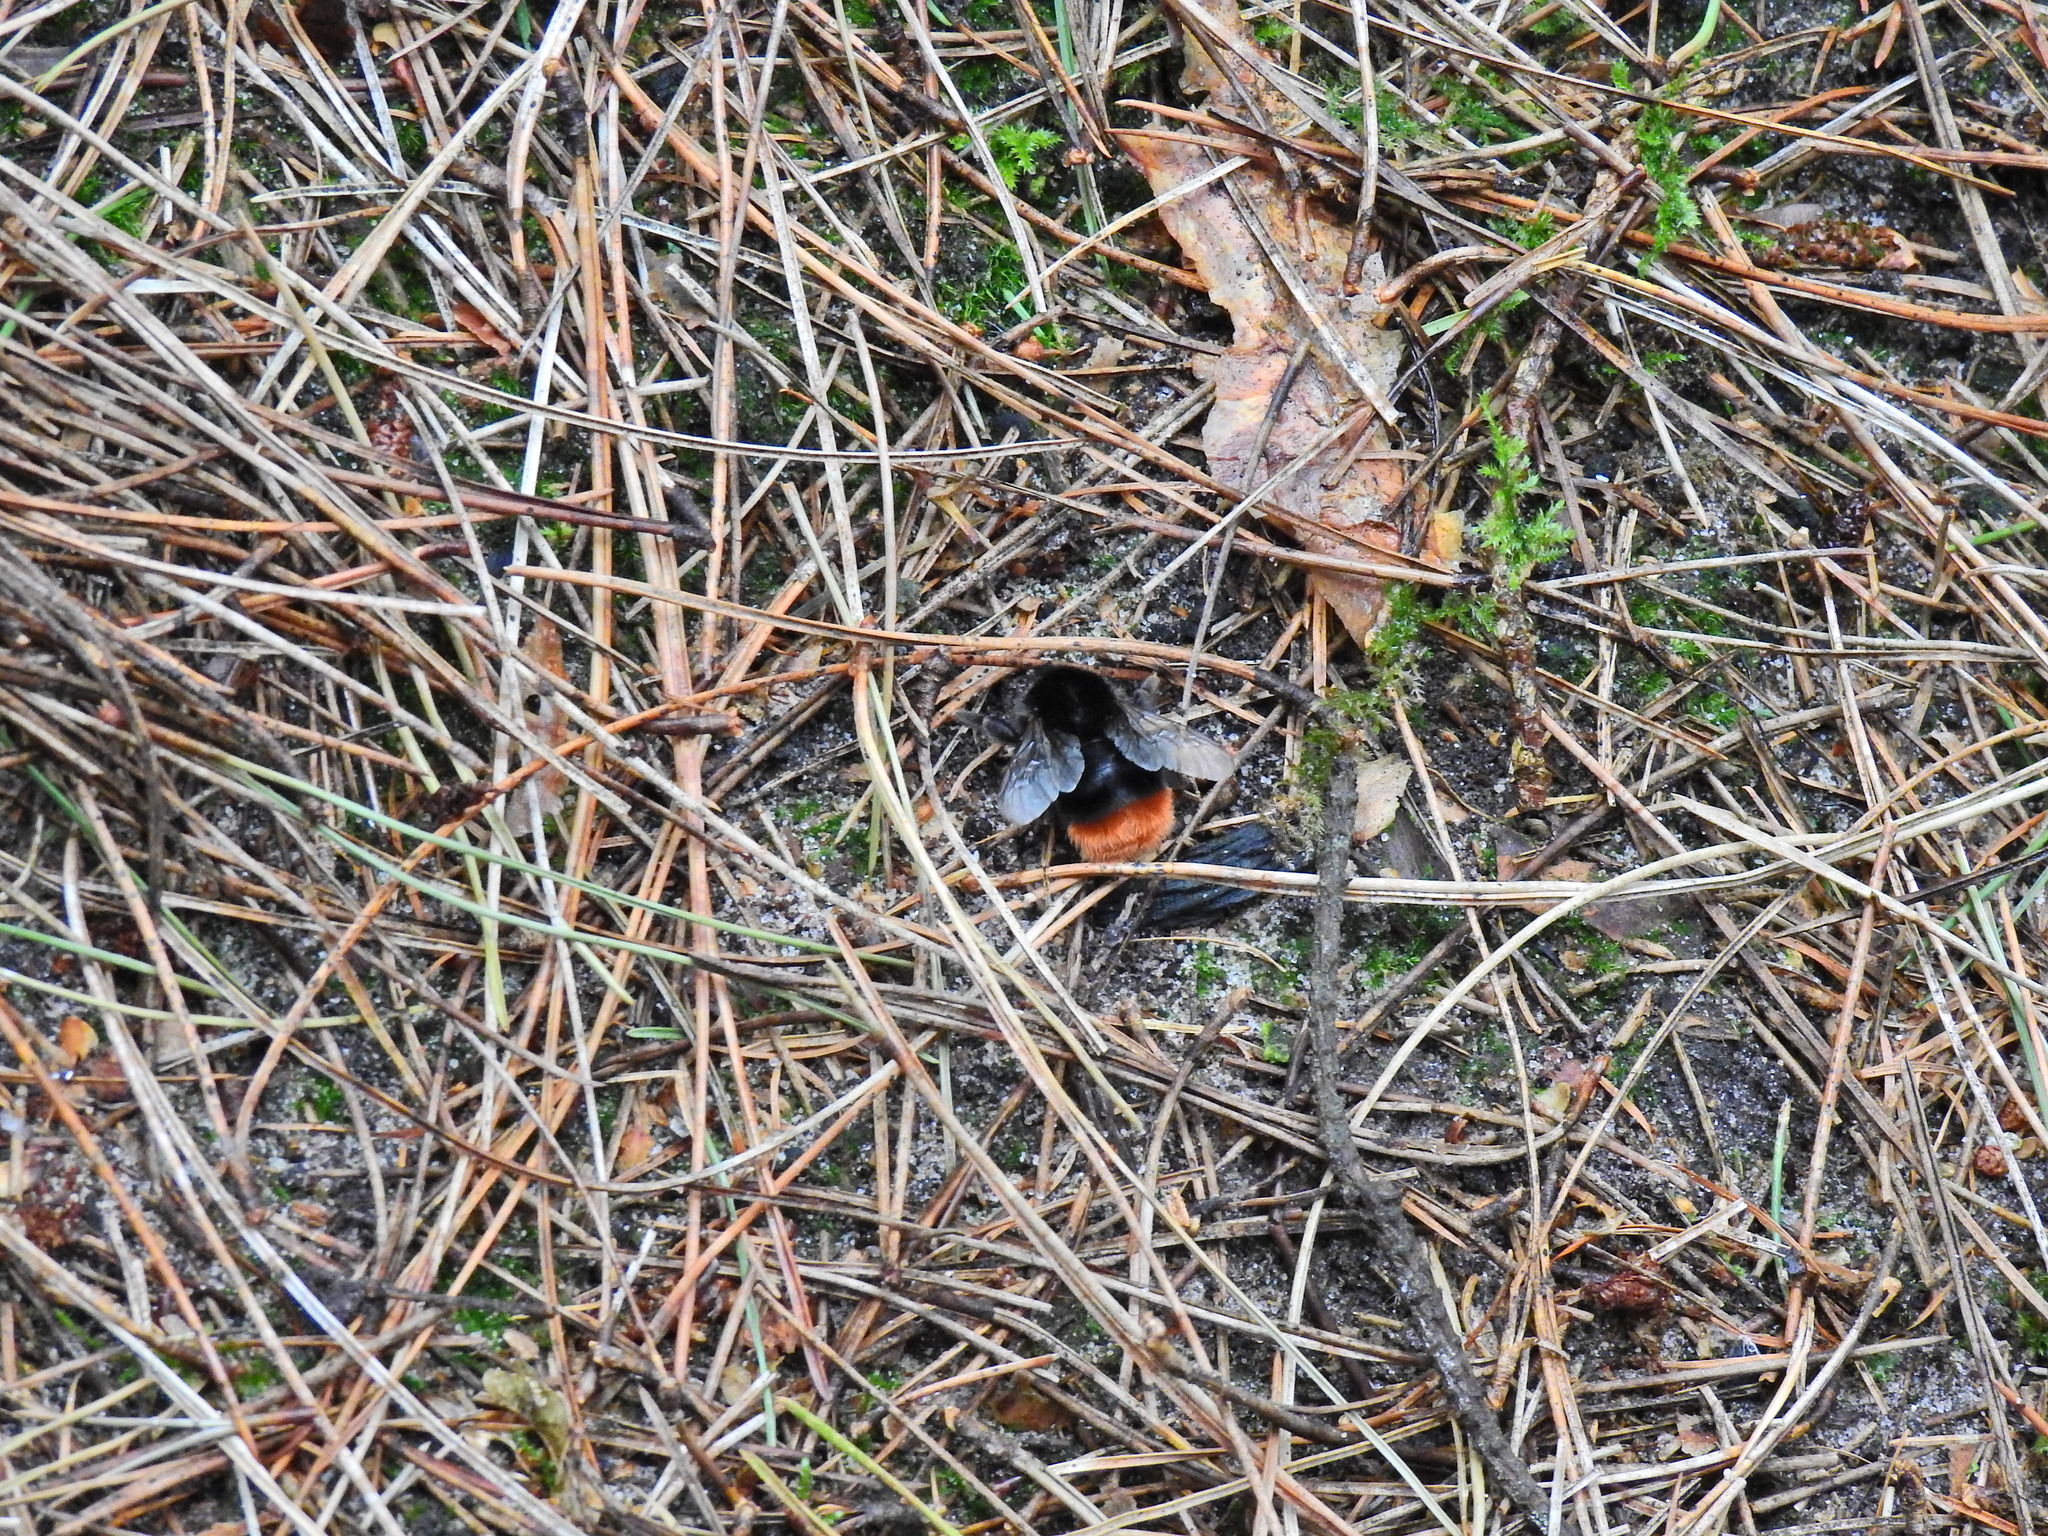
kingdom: Animalia
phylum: Arthropoda
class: Insecta
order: Hymenoptera
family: Apidae
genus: Bombus
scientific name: Bombus lapidarius
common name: Large red-tailed humble-bee
